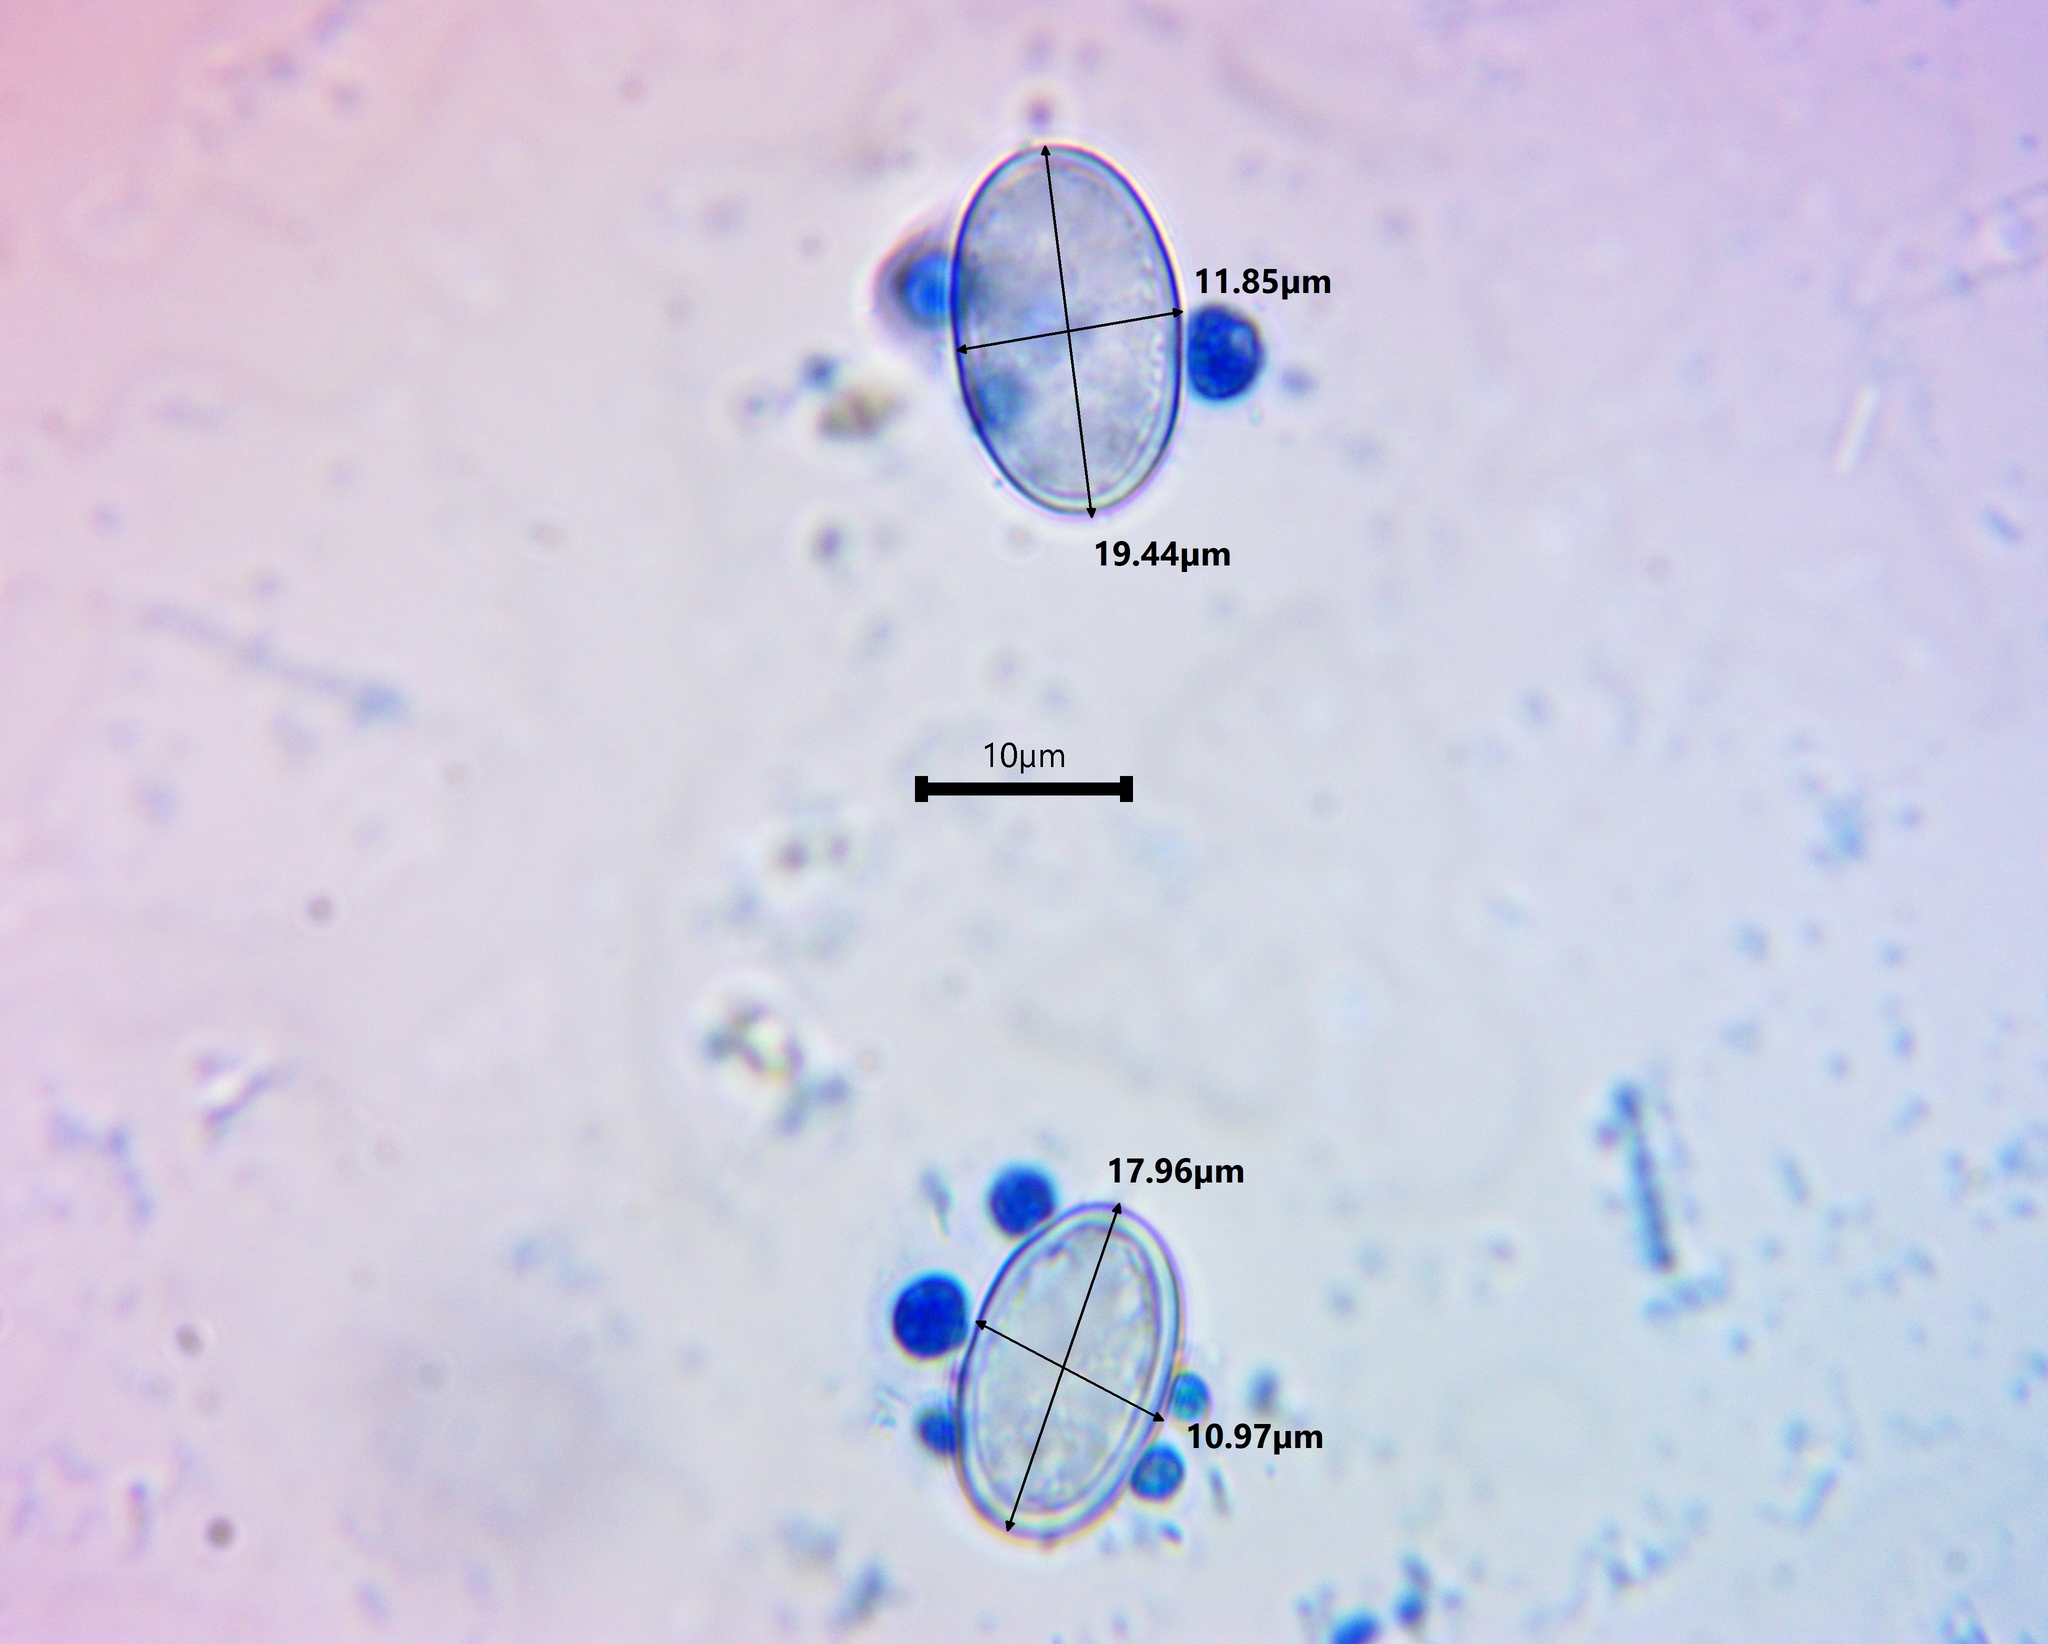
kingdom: Fungi
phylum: Ascomycota
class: Pezizomycetes
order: Pezizales
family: Pyronemataceae
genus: Scutellinia
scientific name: Scutellinia setosa
